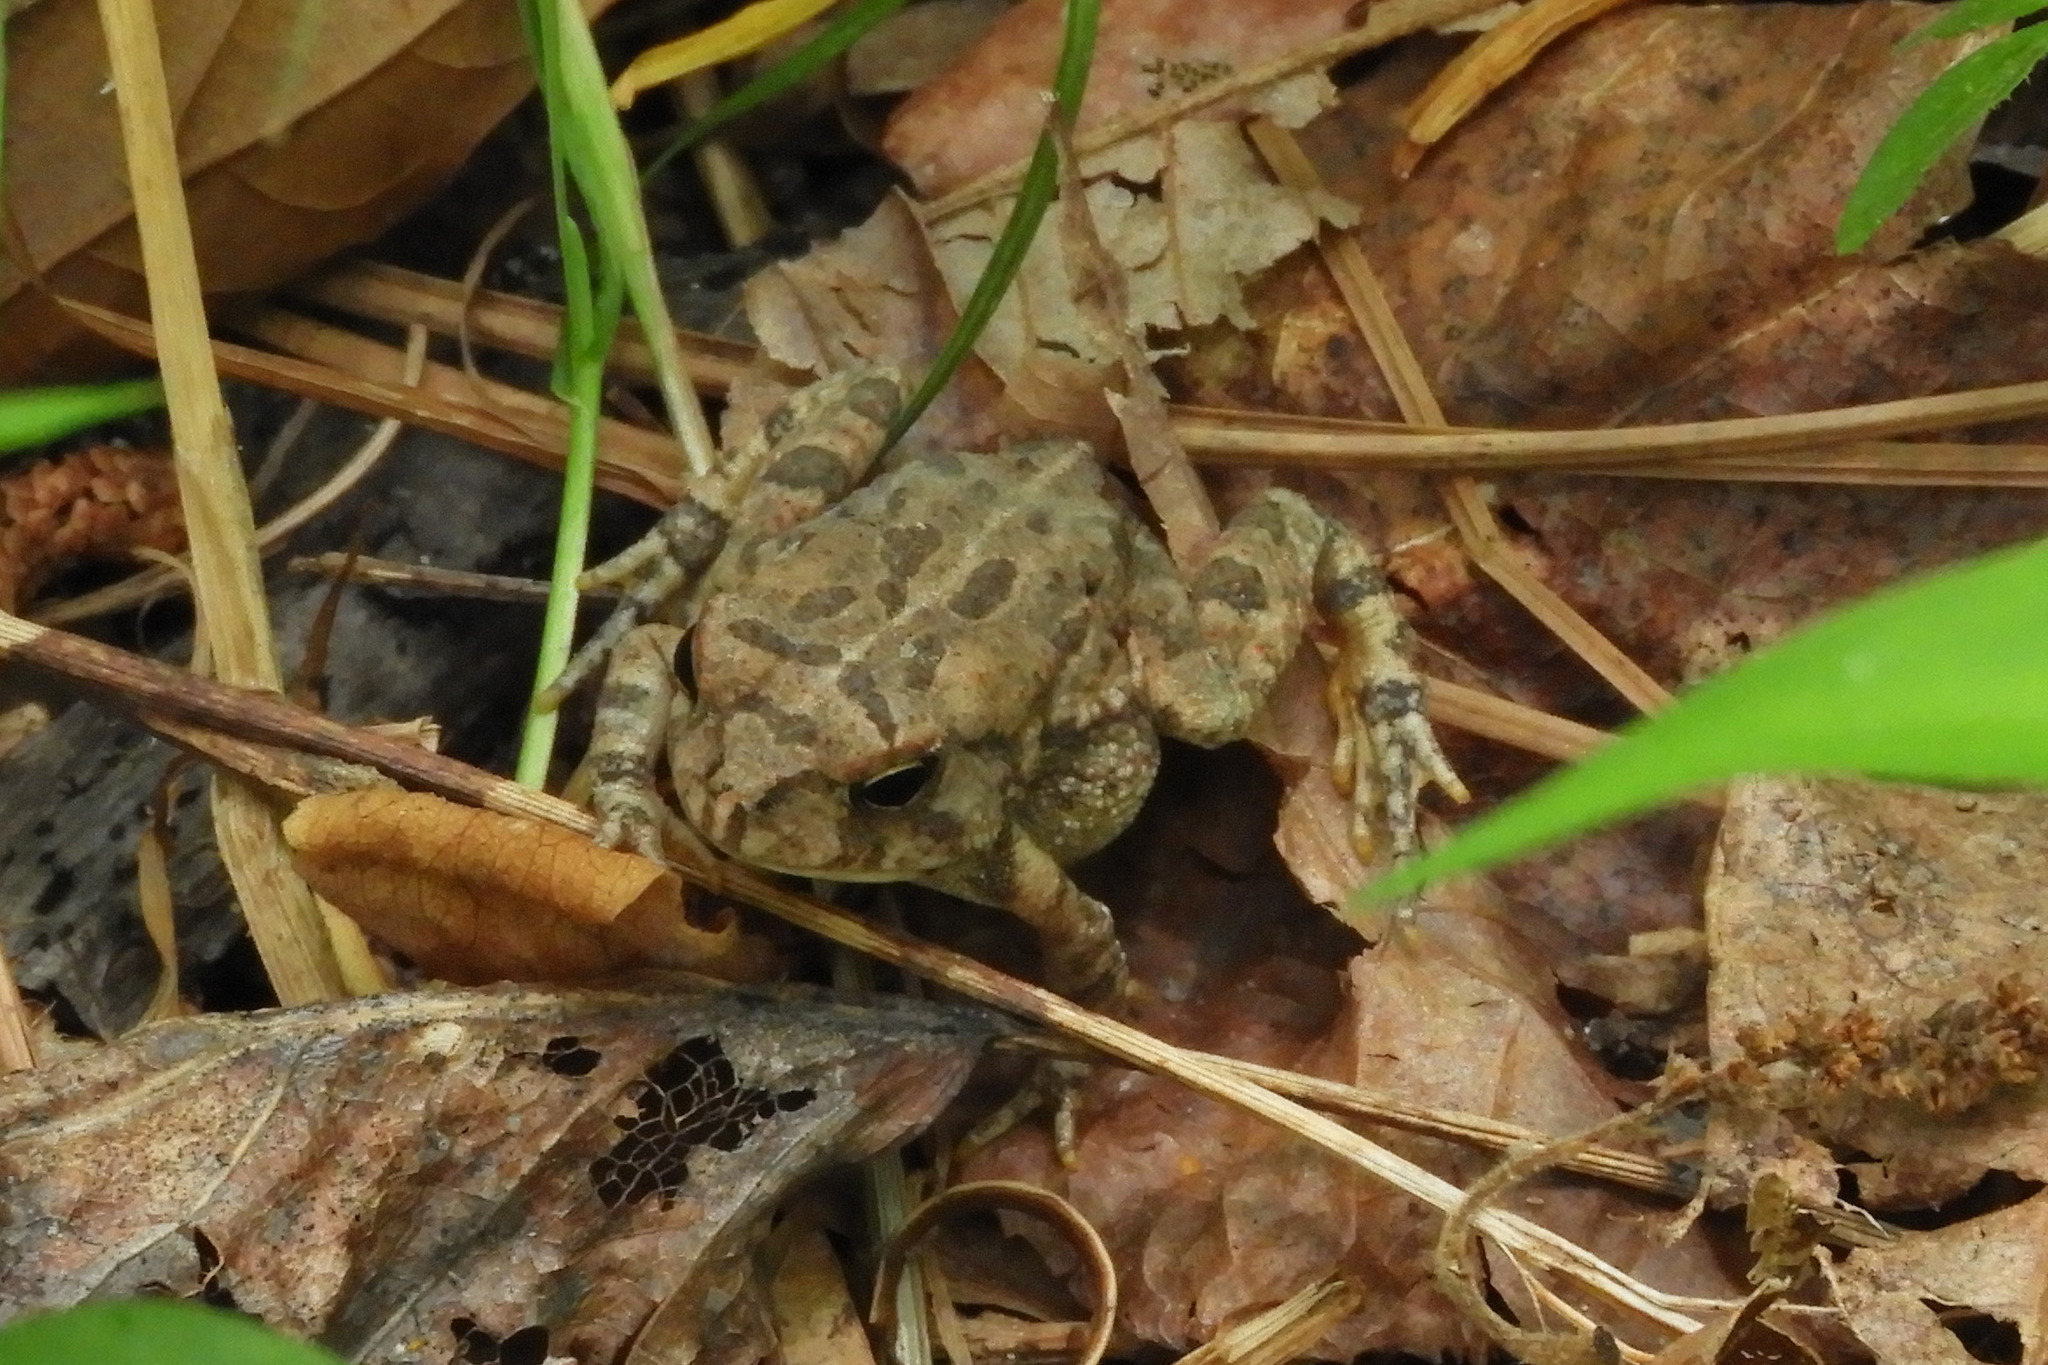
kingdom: Animalia
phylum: Chordata
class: Amphibia
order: Anura
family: Bufonidae
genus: Anaxyrus
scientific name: Anaxyrus fowleri
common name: Fowler's toad
